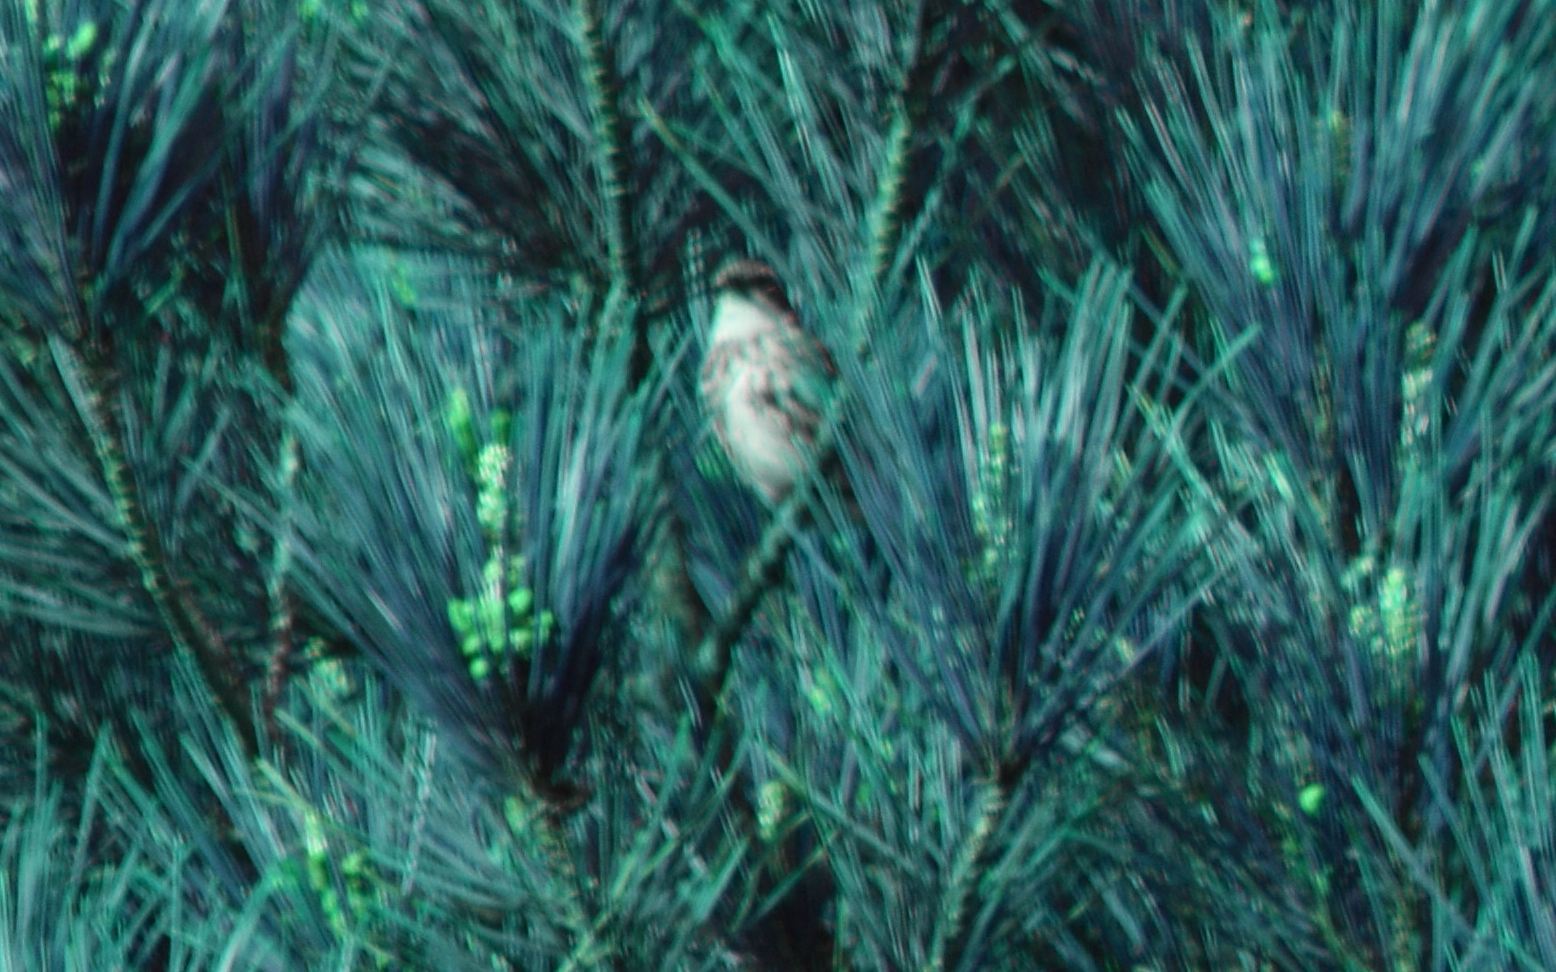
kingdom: Animalia
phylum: Chordata
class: Aves
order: Passeriformes
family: Parulidae
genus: Setophaga
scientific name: Setophaga coronata
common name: Myrtle warbler
